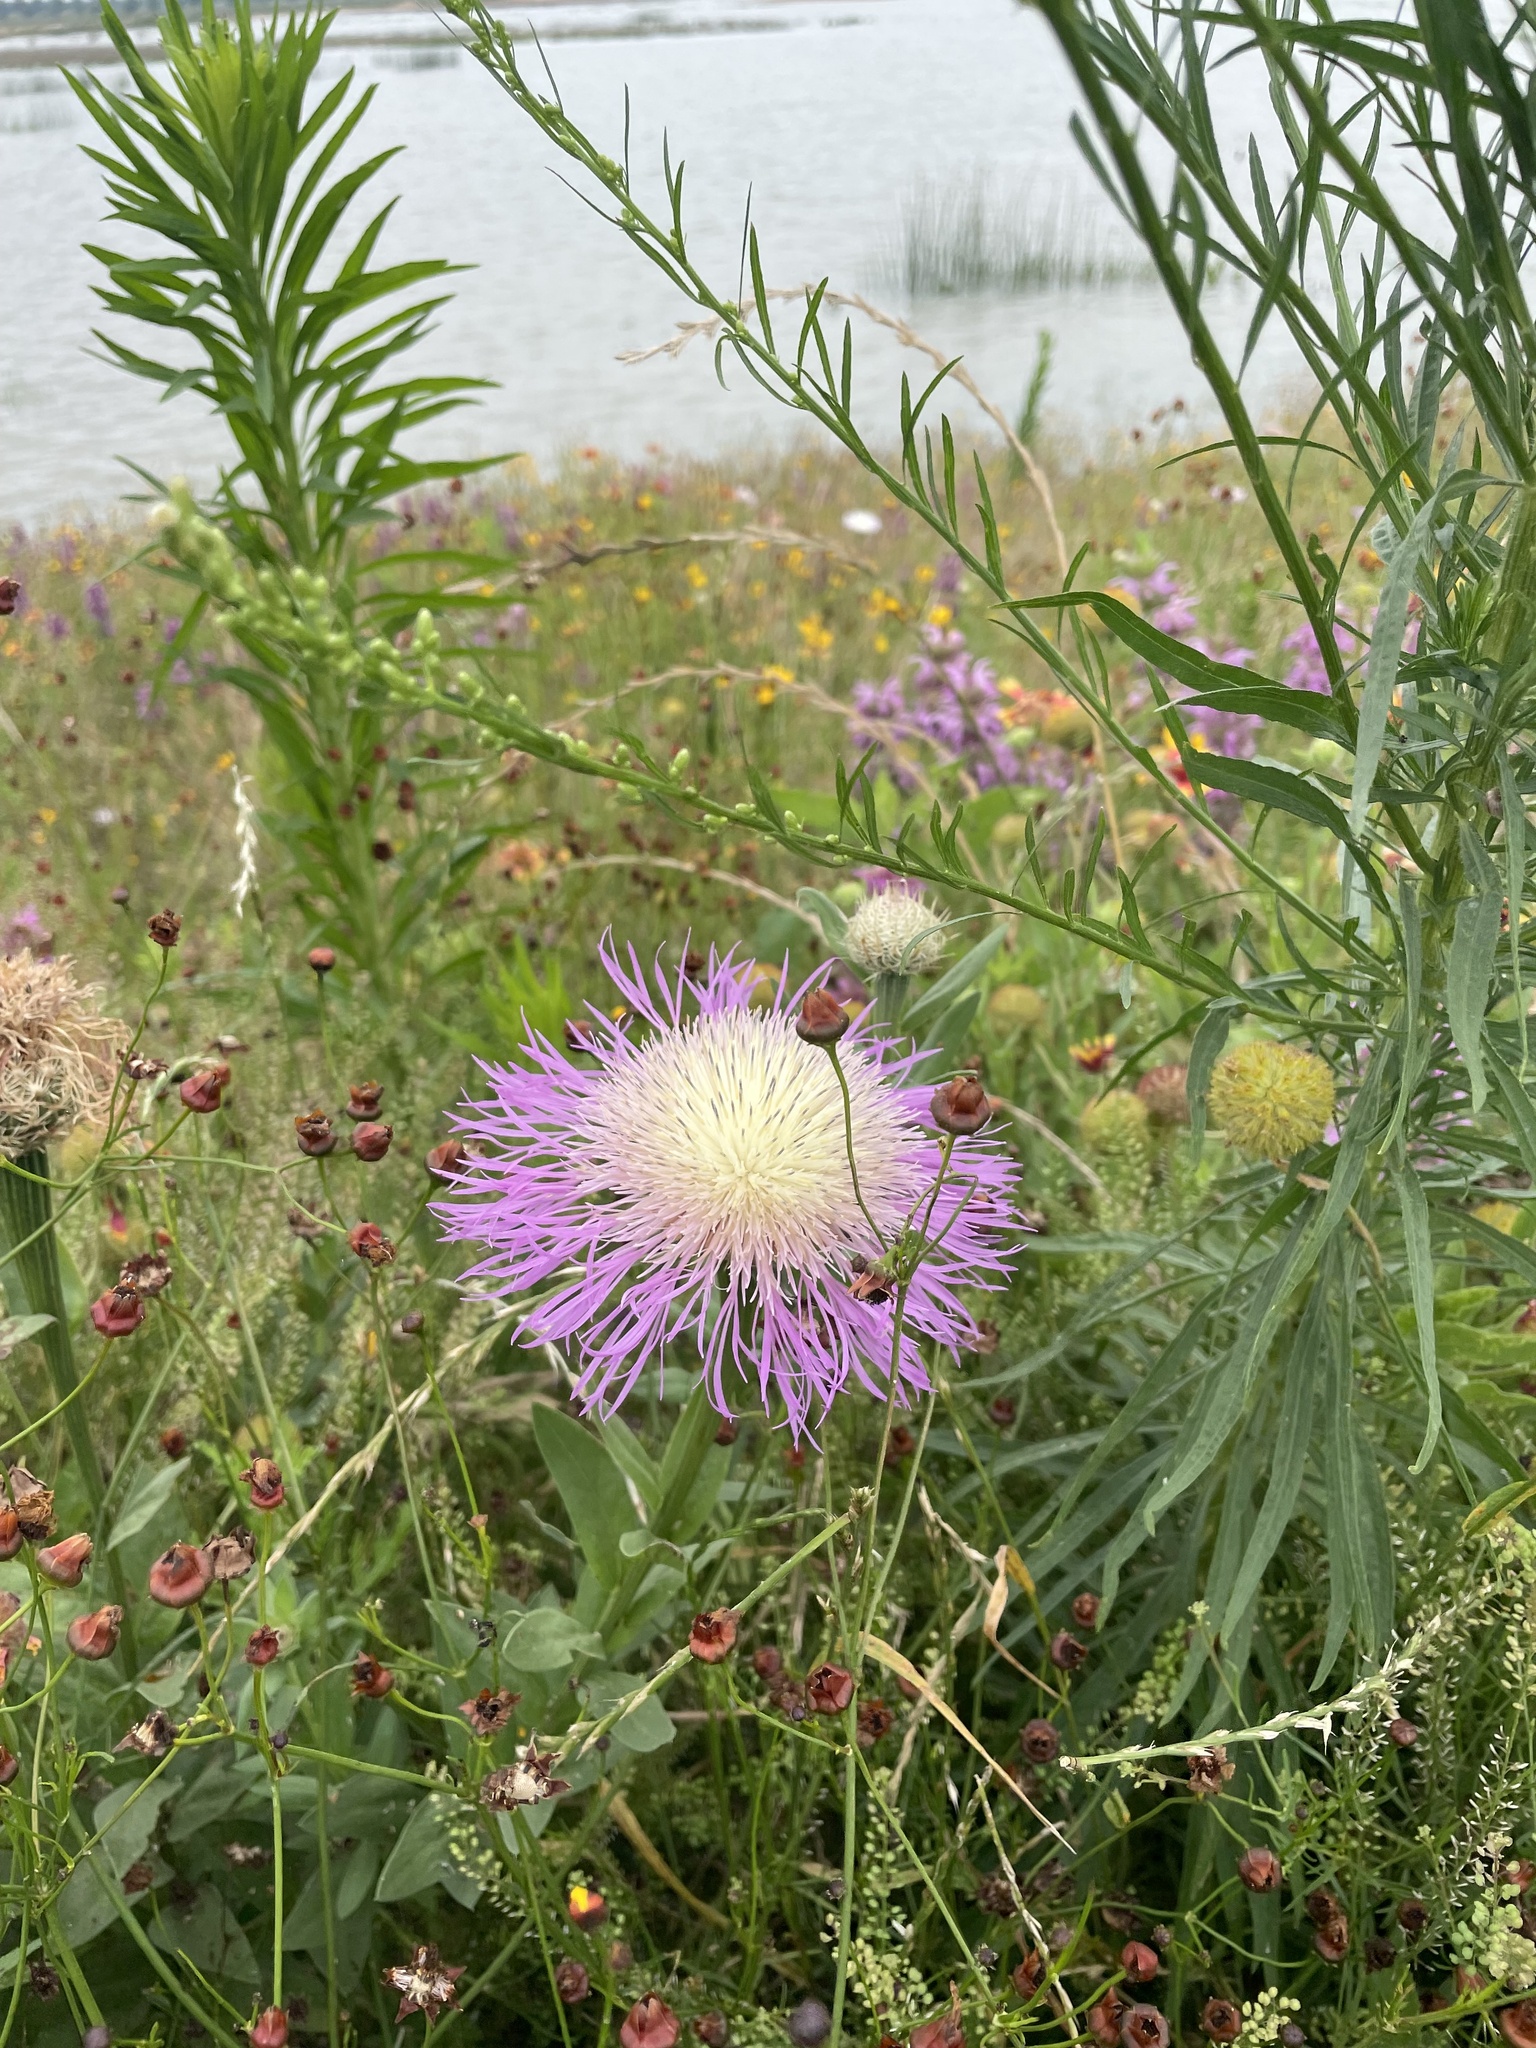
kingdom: Plantae
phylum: Tracheophyta
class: Magnoliopsida
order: Asterales
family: Asteraceae
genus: Plectocephalus
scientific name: Plectocephalus americanus
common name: American basket-flower
